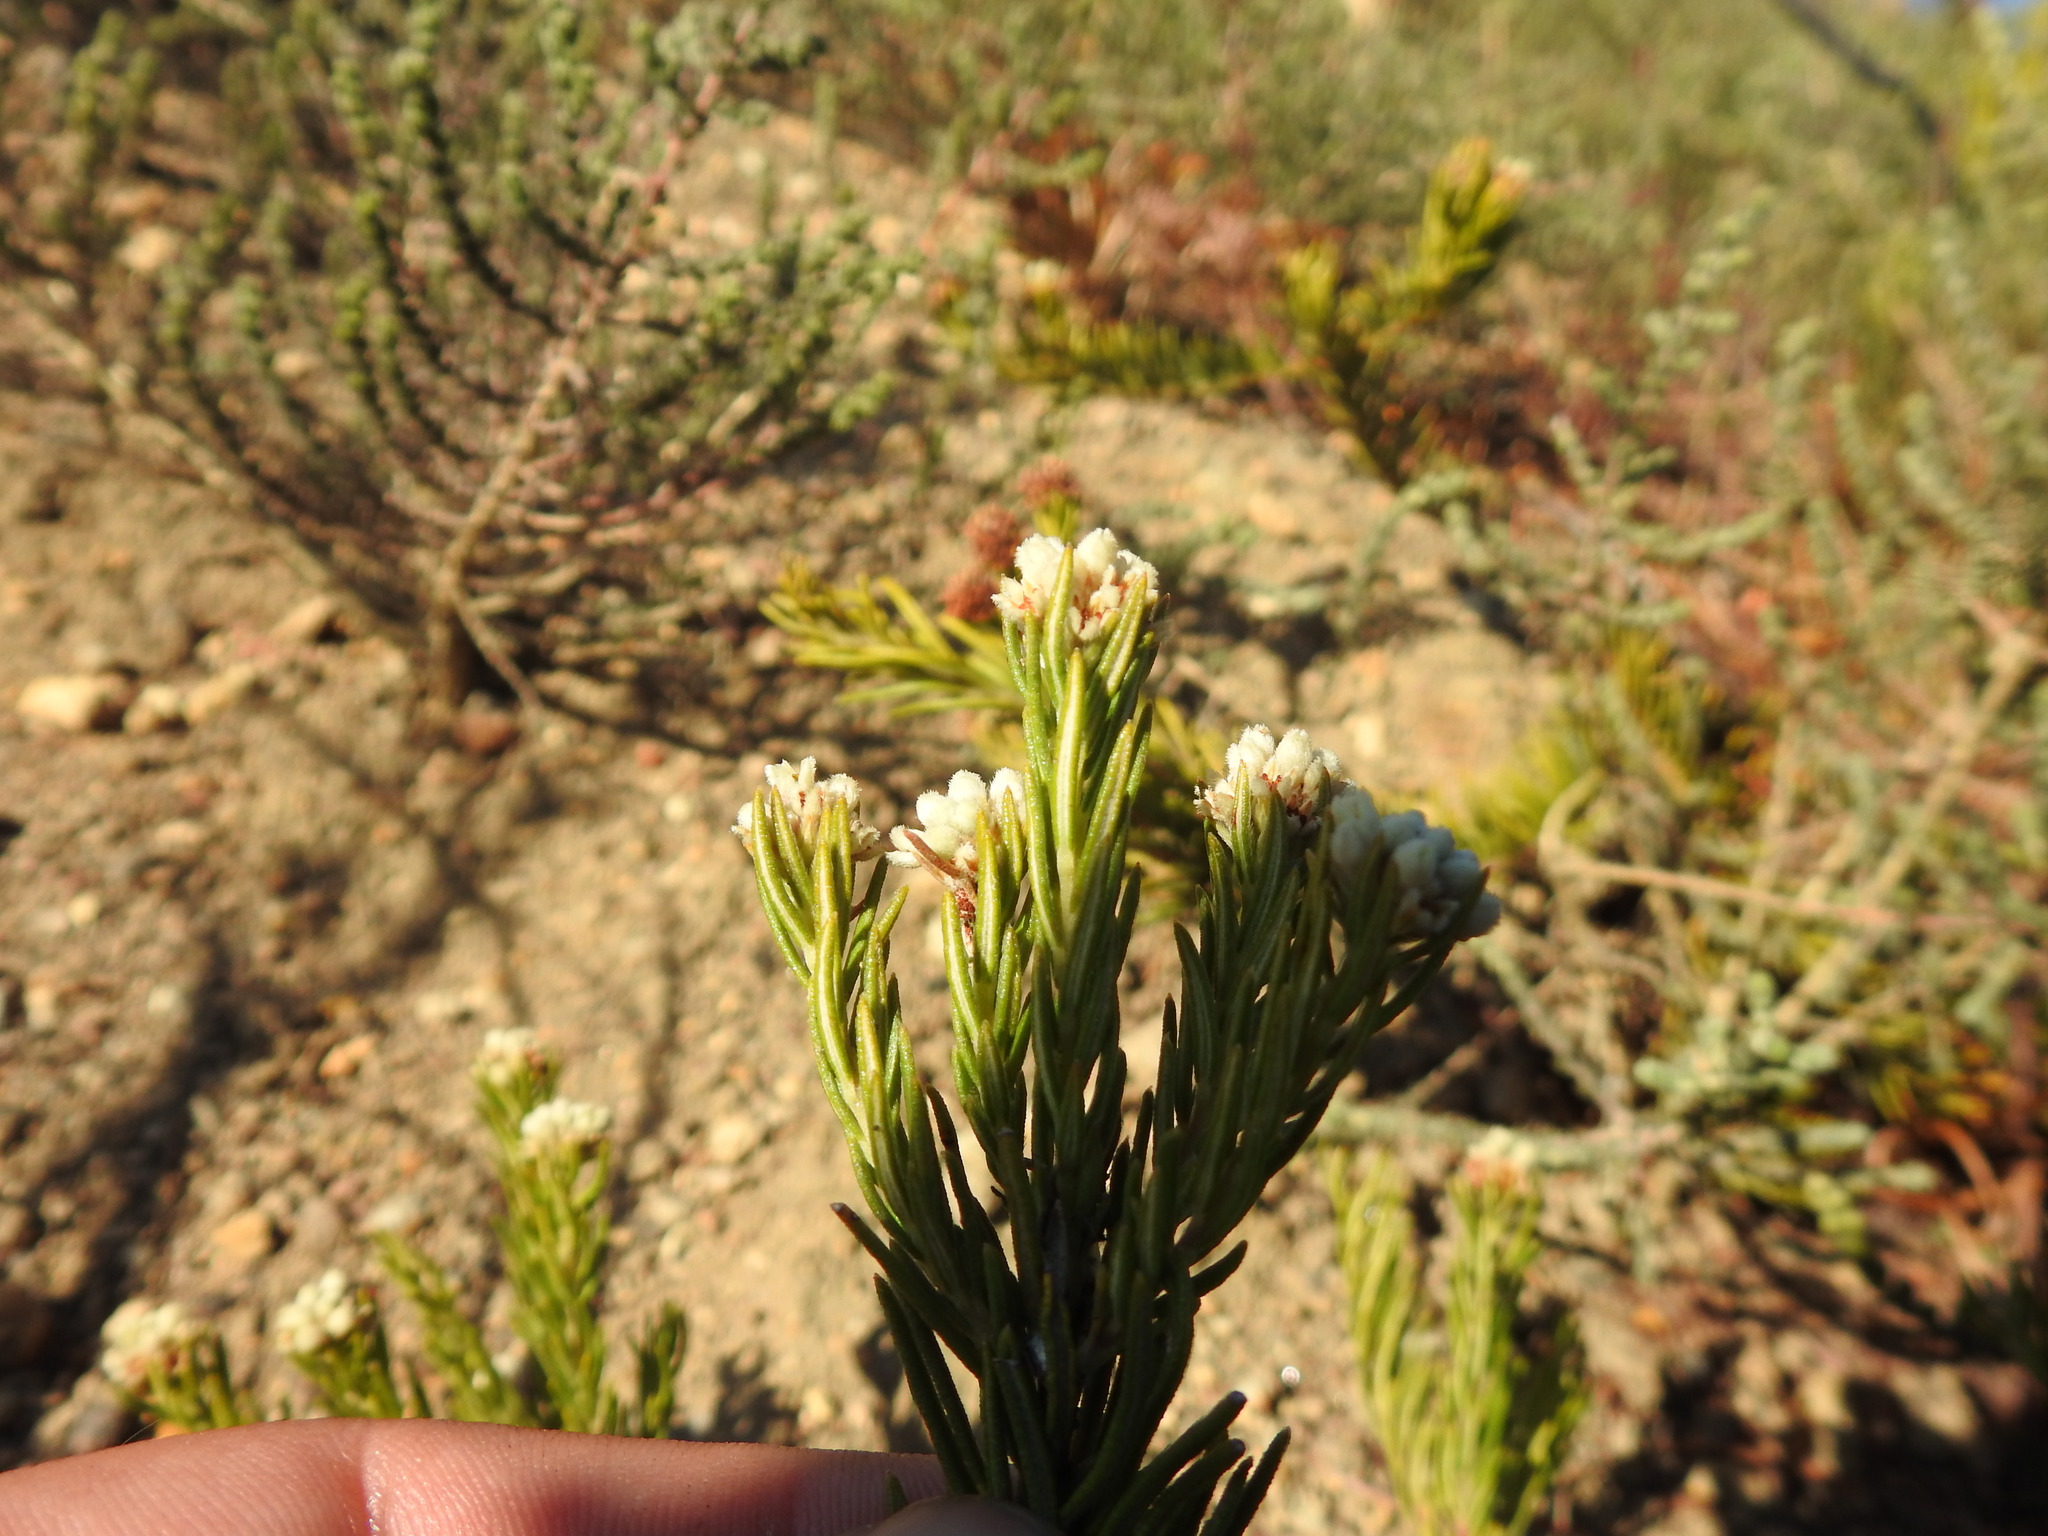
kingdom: Plantae
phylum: Tracheophyta
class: Magnoliopsida
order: Rosales
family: Rhamnaceae
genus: Phylica
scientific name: Phylica imberbis
